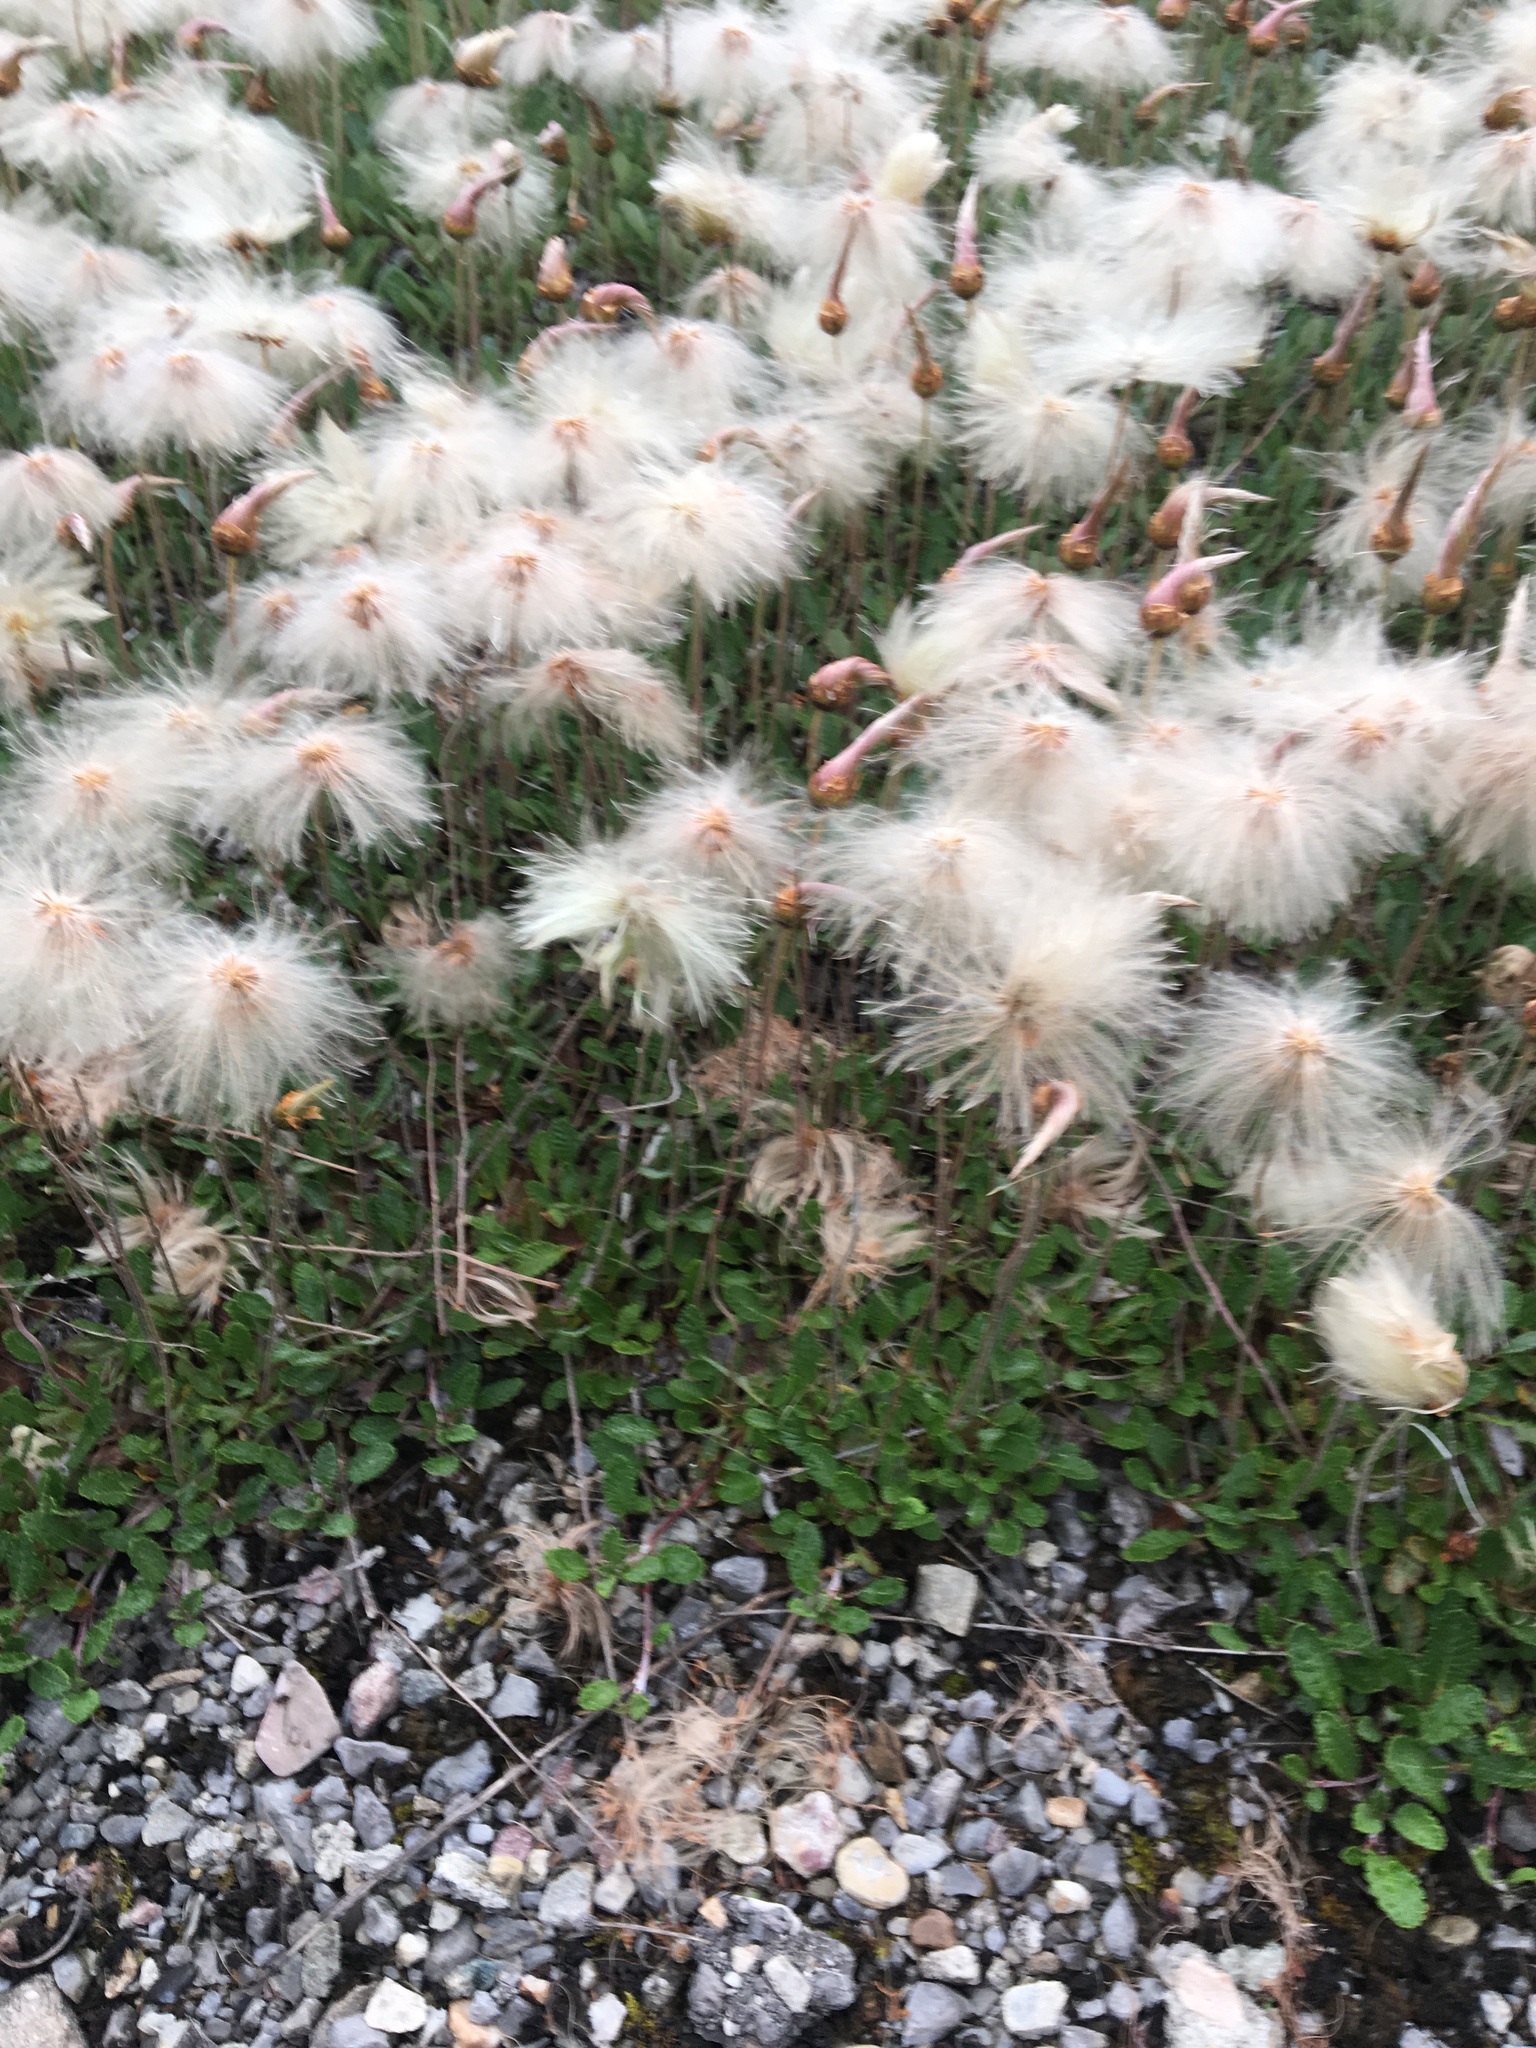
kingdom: Plantae
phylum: Tracheophyta
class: Magnoliopsida
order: Rosales
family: Rosaceae
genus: Dryas
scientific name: Dryas drummondii
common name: Drummond's dryad
